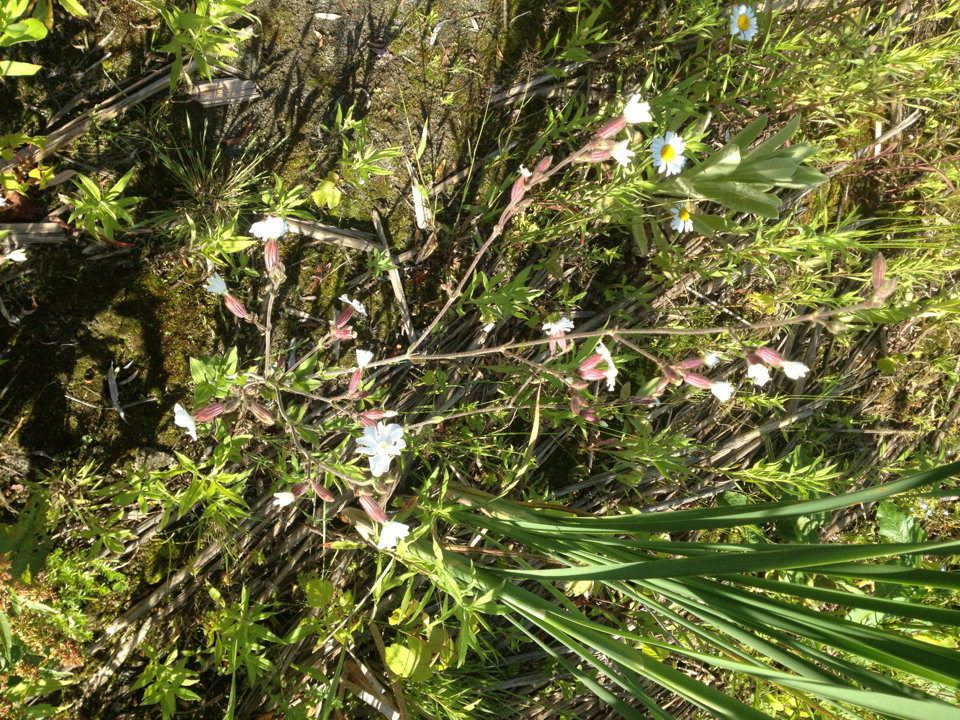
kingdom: Plantae
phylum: Tracheophyta
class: Magnoliopsida
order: Caryophyllales
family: Caryophyllaceae
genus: Silene
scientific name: Silene latifolia
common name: White campion
